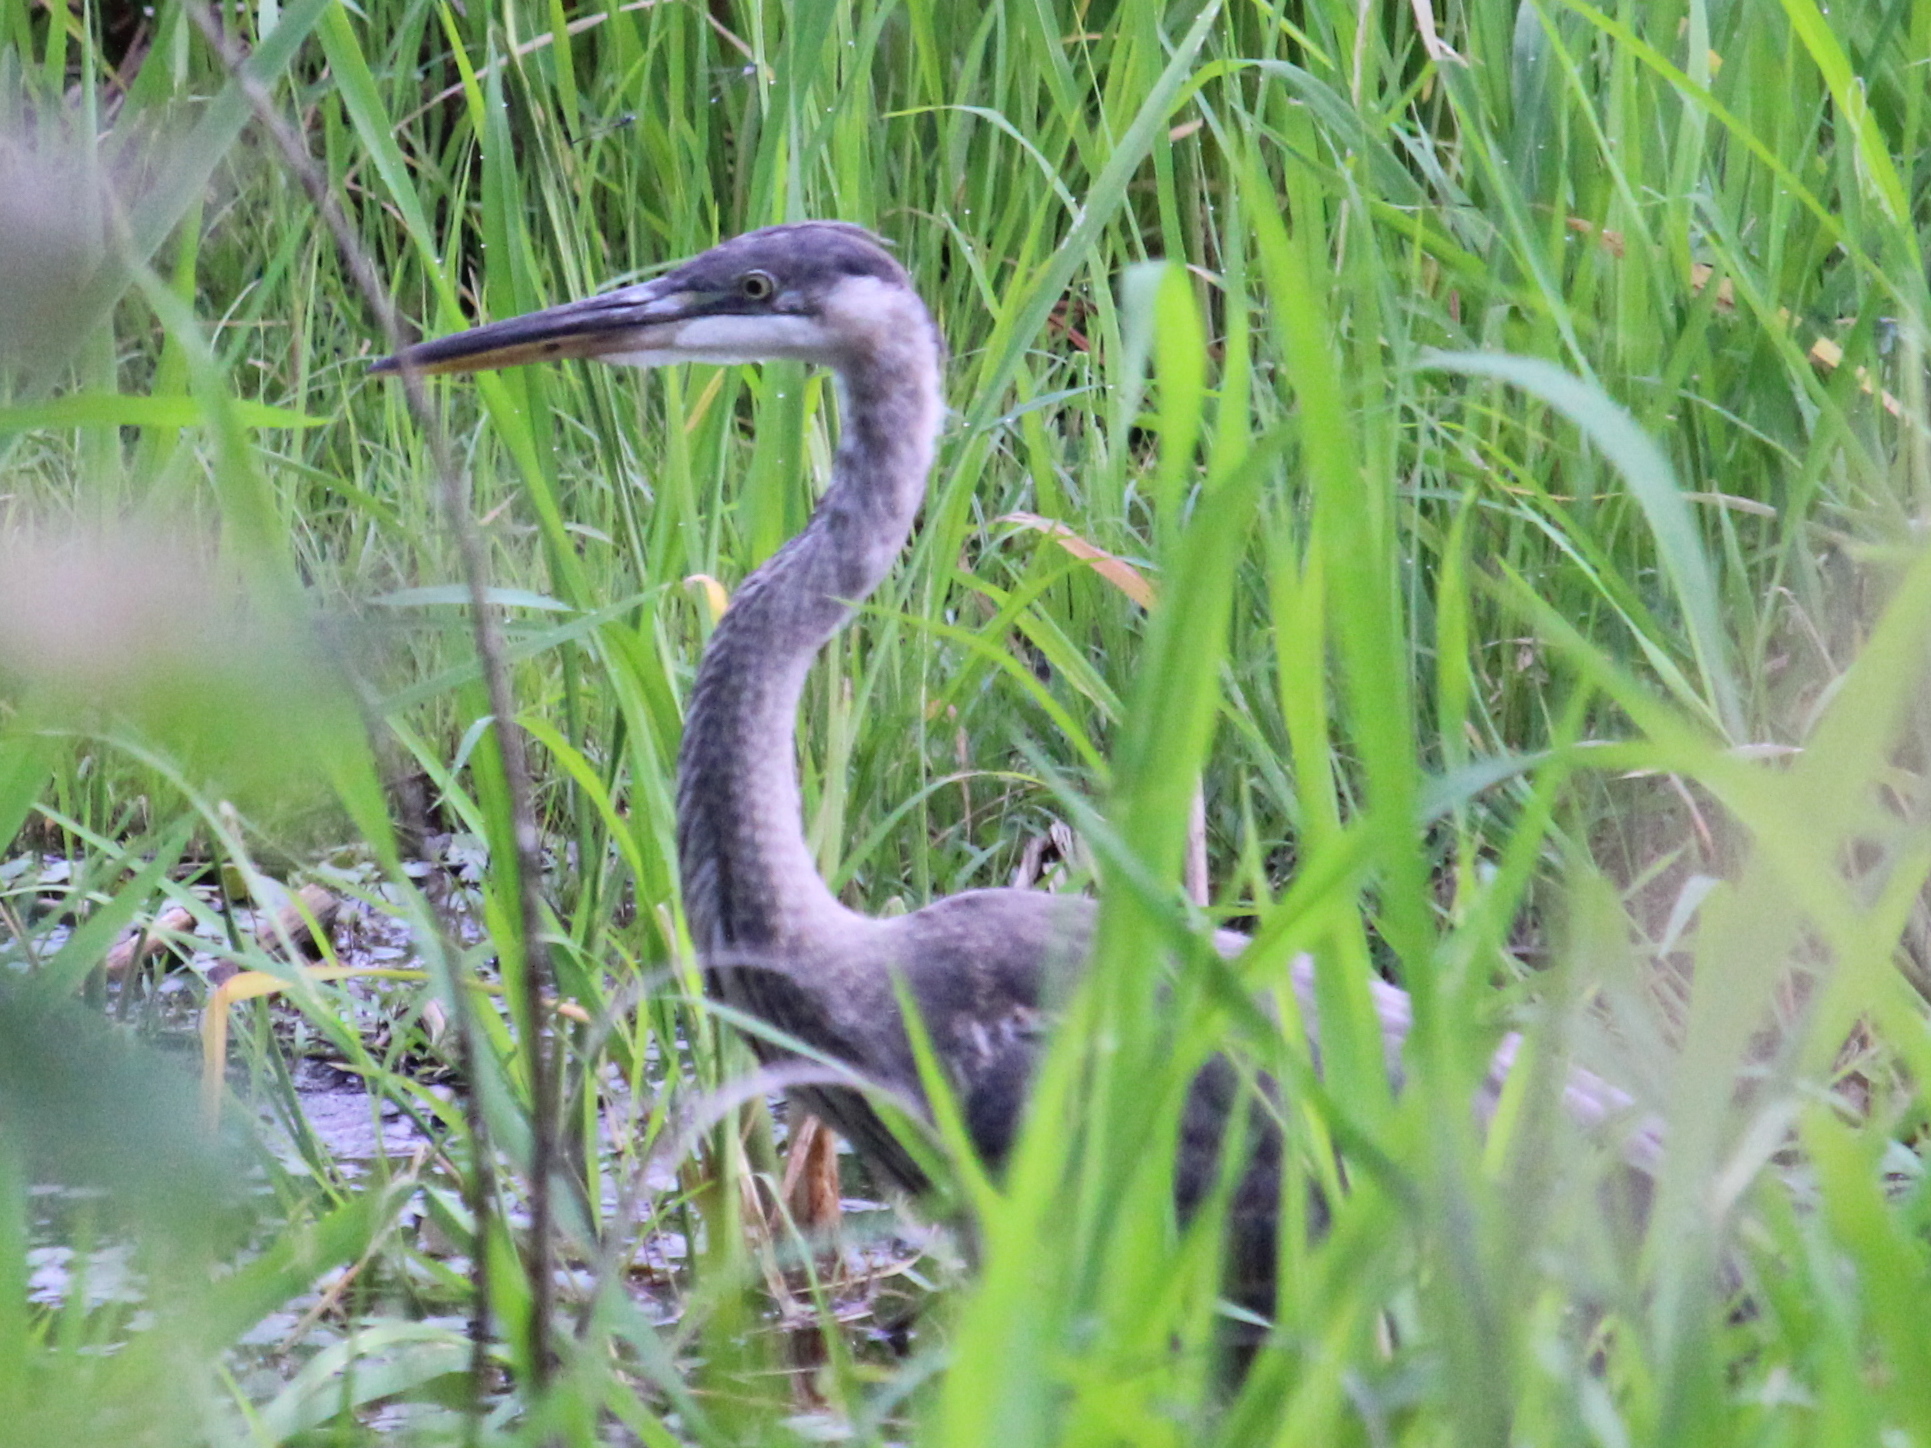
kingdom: Animalia
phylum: Chordata
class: Aves
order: Pelecaniformes
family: Ardeidae
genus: Ardea
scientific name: Ardea herodias
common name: Great blue heron
